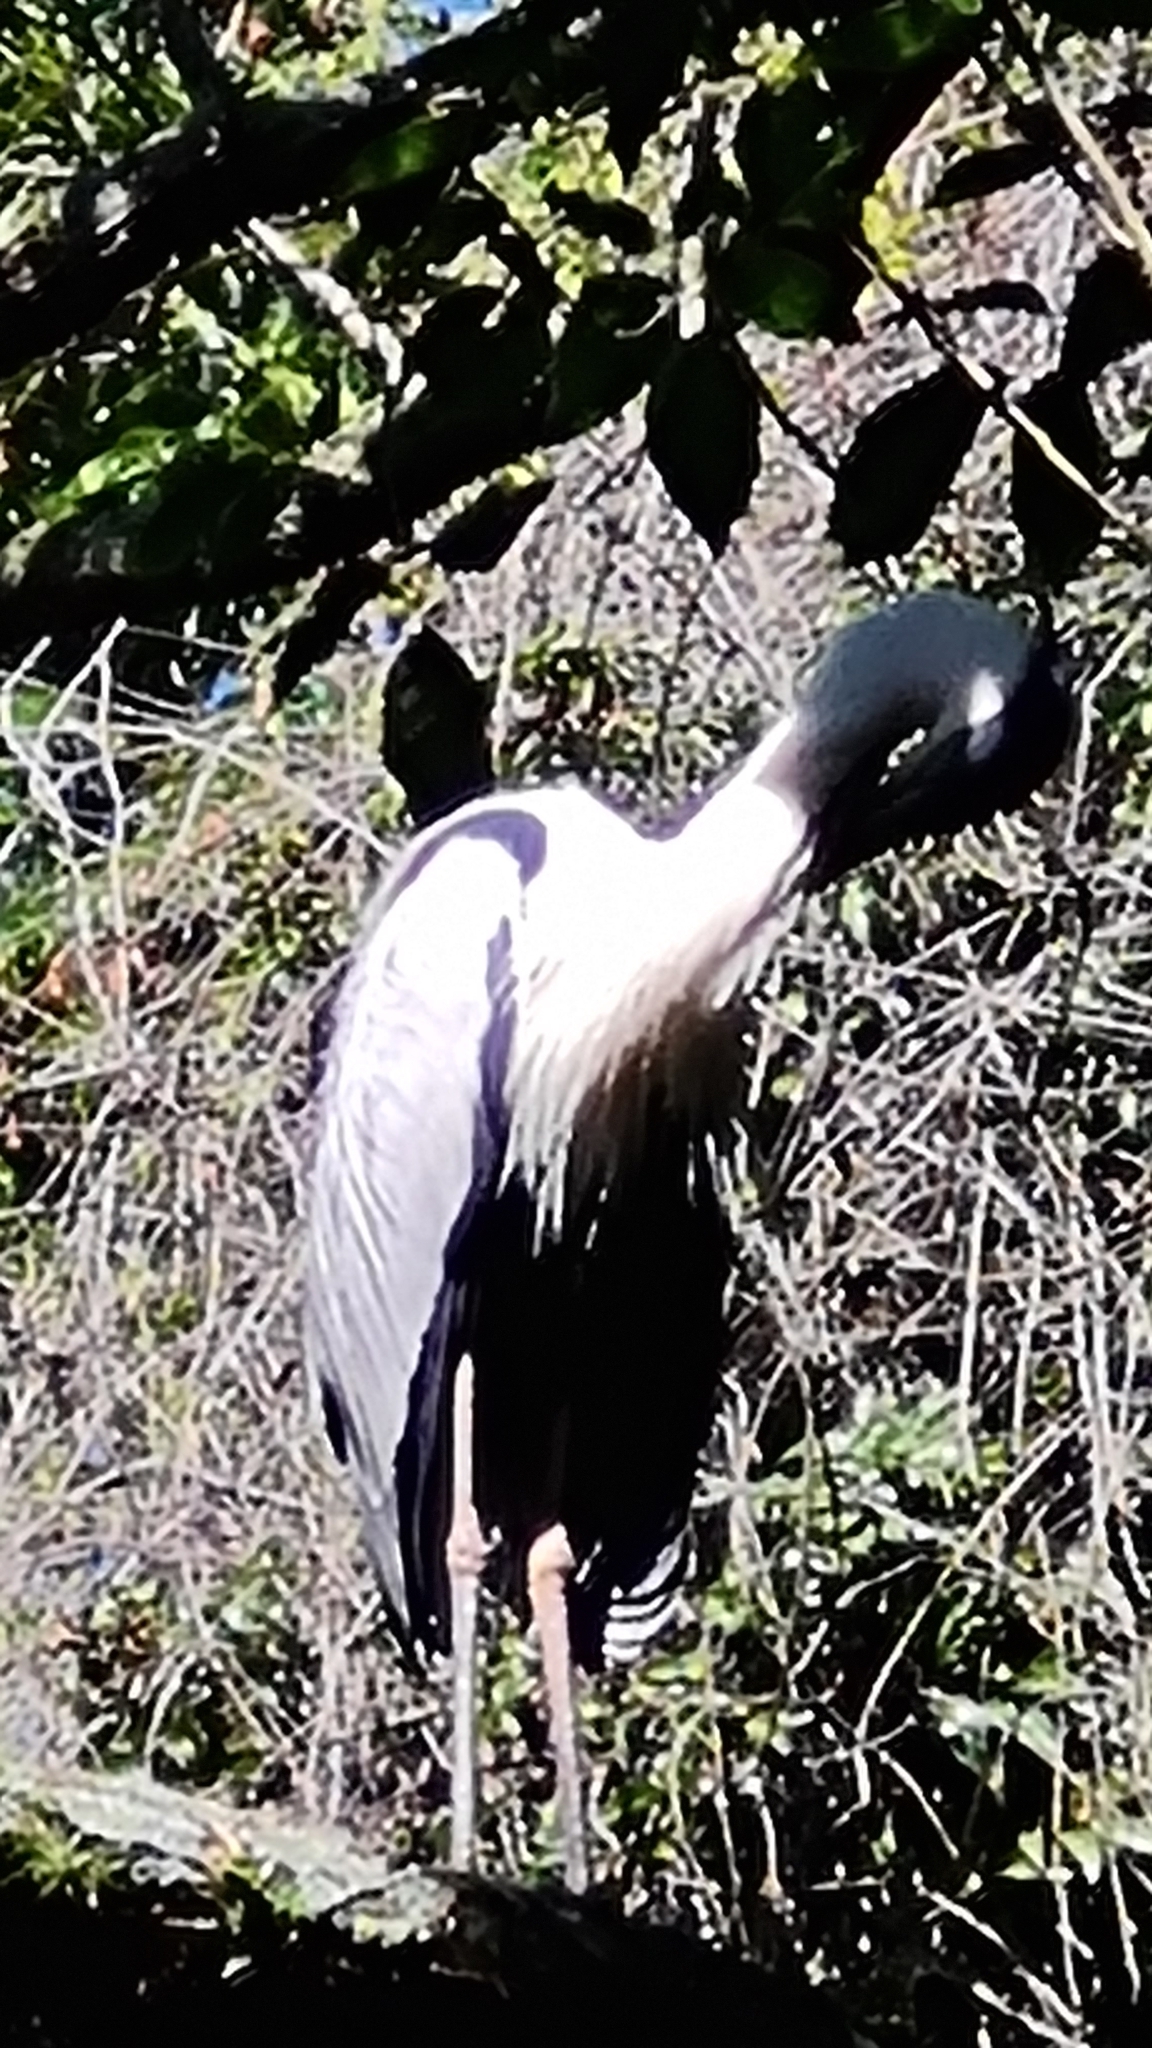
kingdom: Animalia
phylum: Chordata
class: Aves
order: Pelecaniformes
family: Ardeidae
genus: Ardea
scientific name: Ardea cocoi
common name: Cocoi heron
